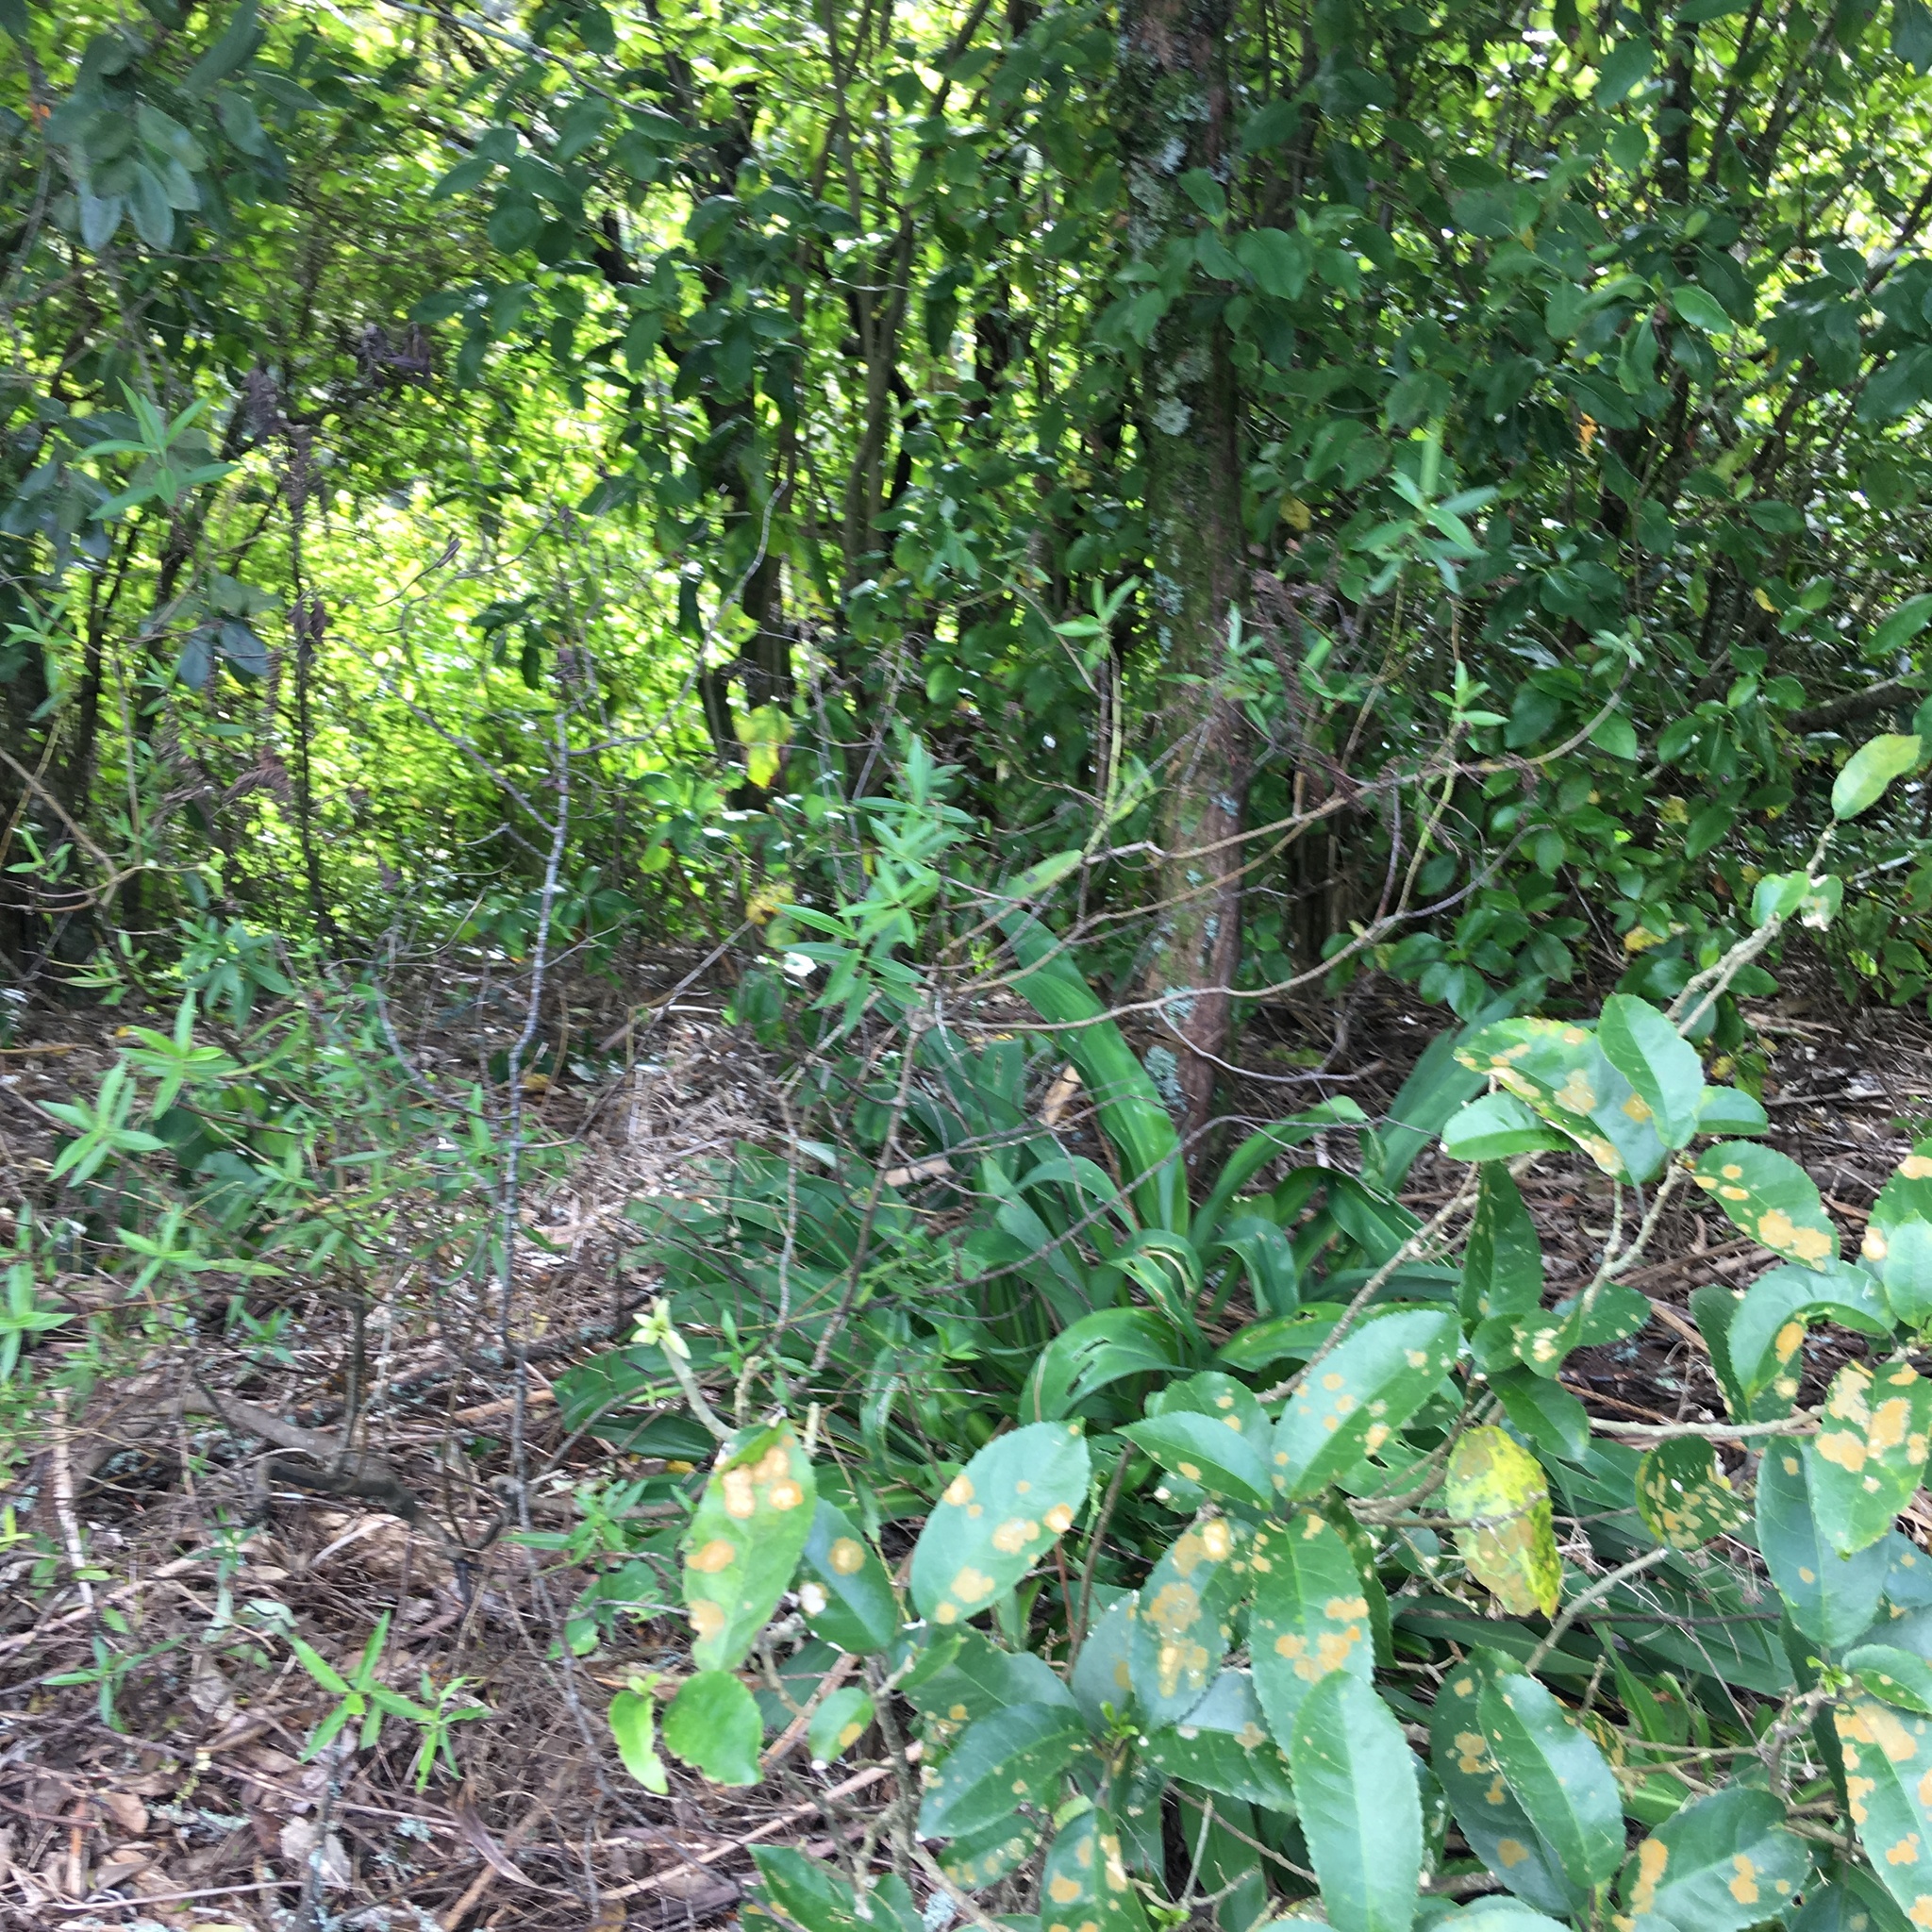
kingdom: Plantae
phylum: Tracheophyta
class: Liliopsida
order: Asparagales
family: Asparagaceae
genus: Arthropodium
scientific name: Arthropodium cirratum
